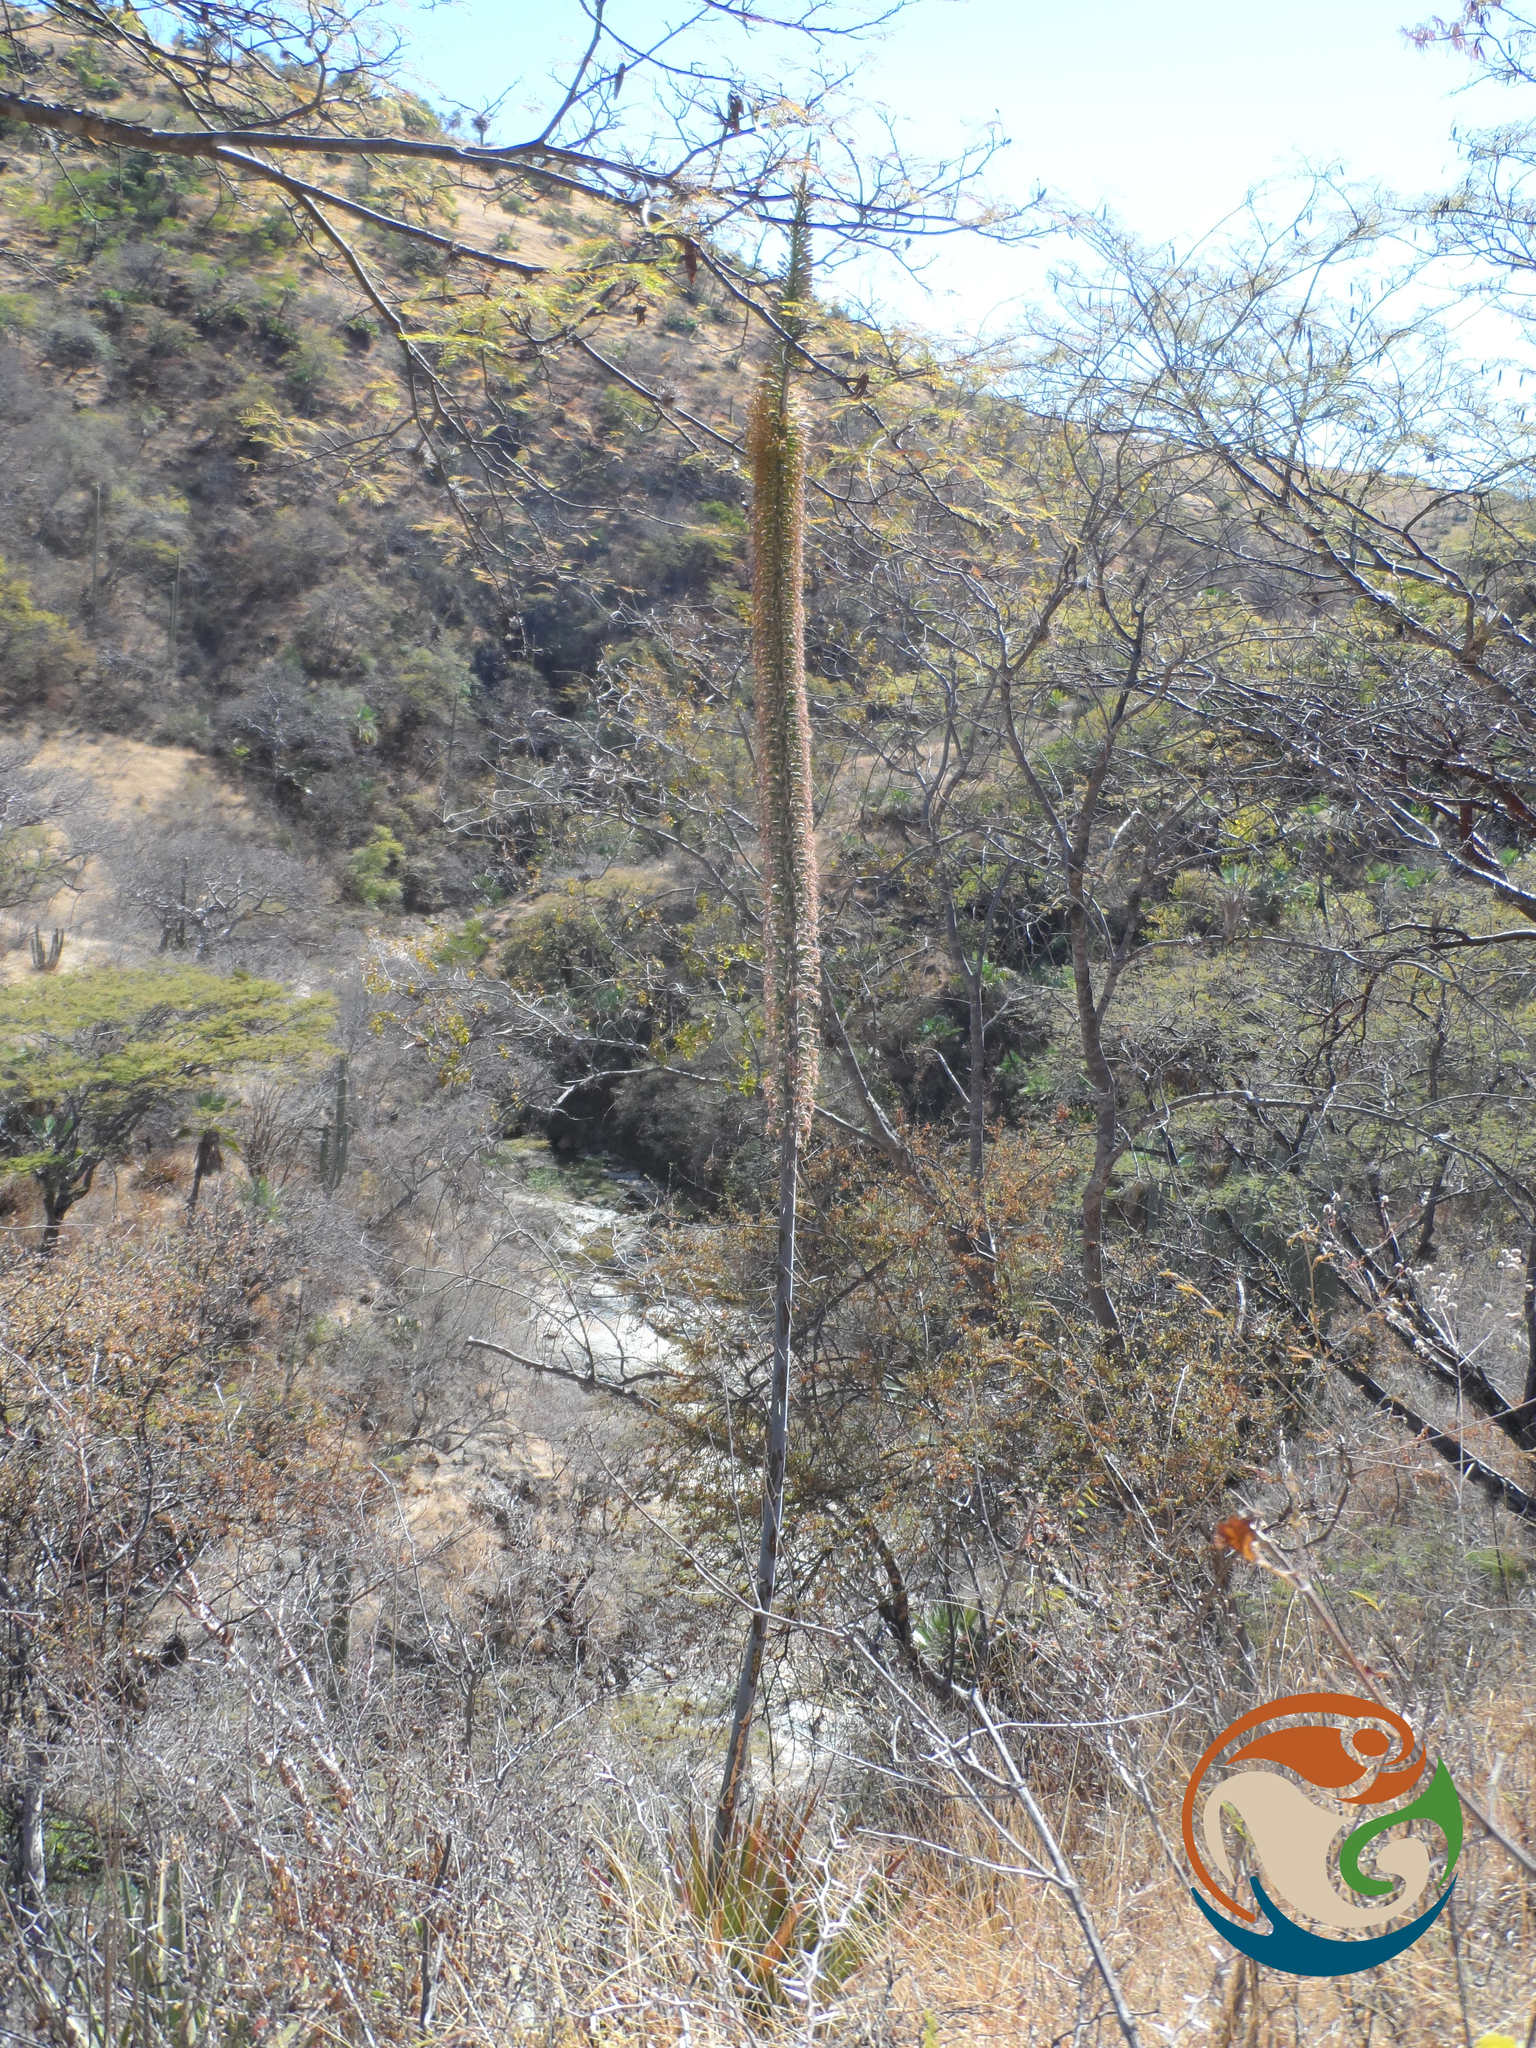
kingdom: Plantae
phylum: Tracheophyta
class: Liliopsida
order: Asparagales
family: Asparagaceae
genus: Agave
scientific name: Agave convallis
